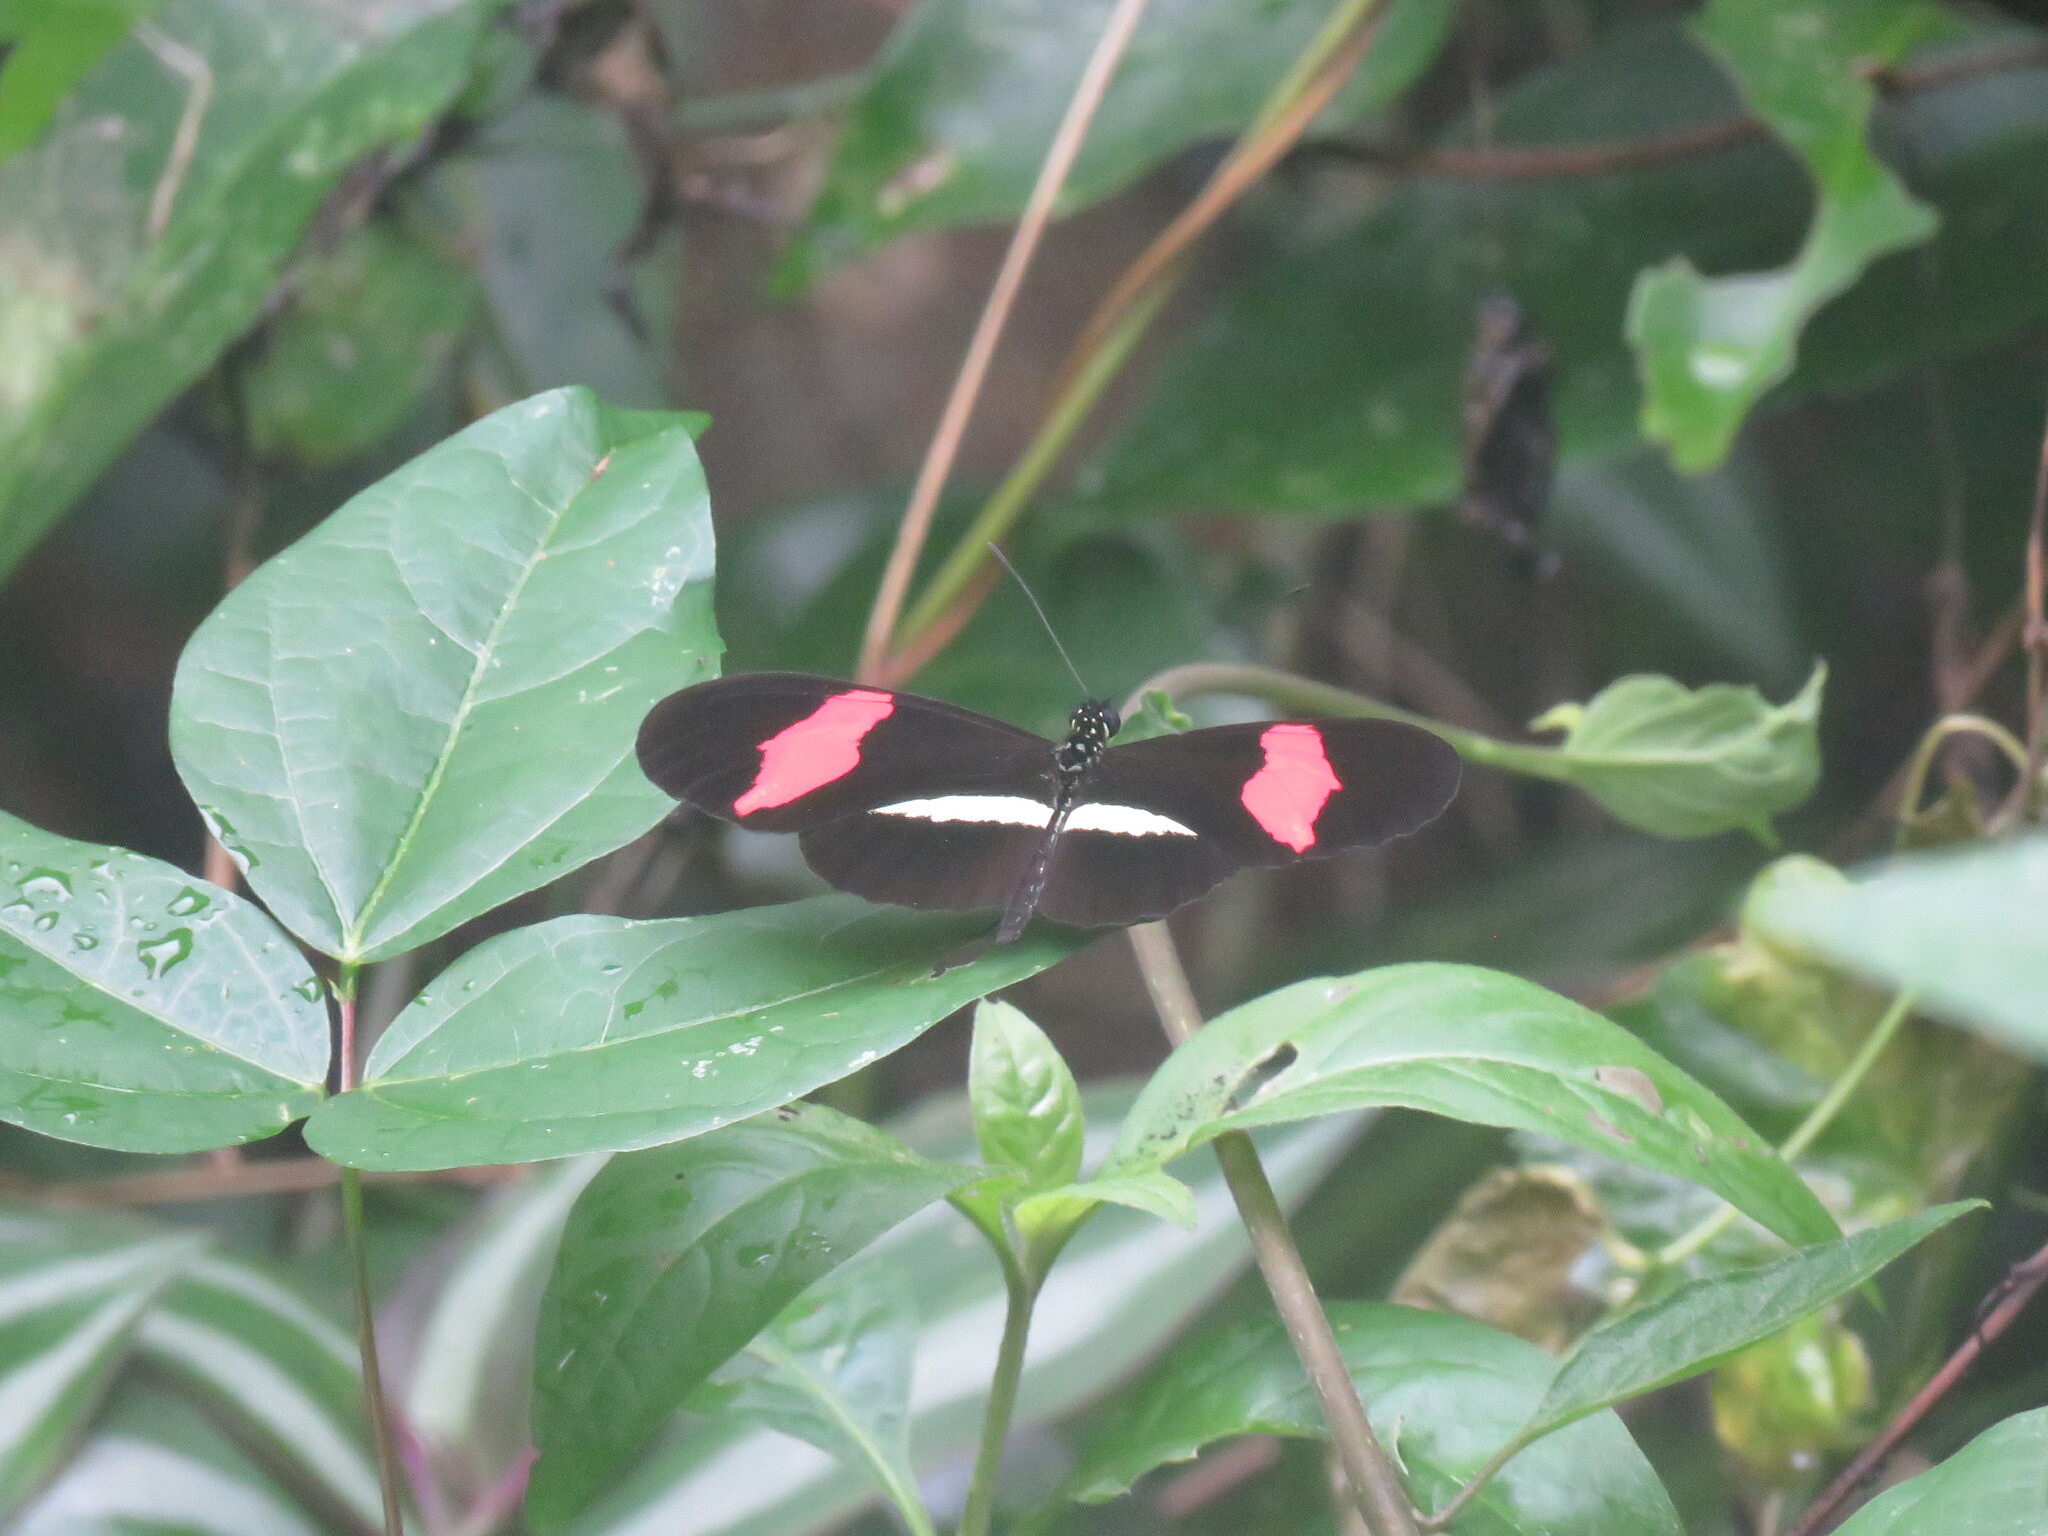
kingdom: Animalia
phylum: Arthropoda
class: Insecta
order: Lepidoptera
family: Nymphalidae
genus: Tirumala
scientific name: Tirumala petiverana
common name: Blue monarch
